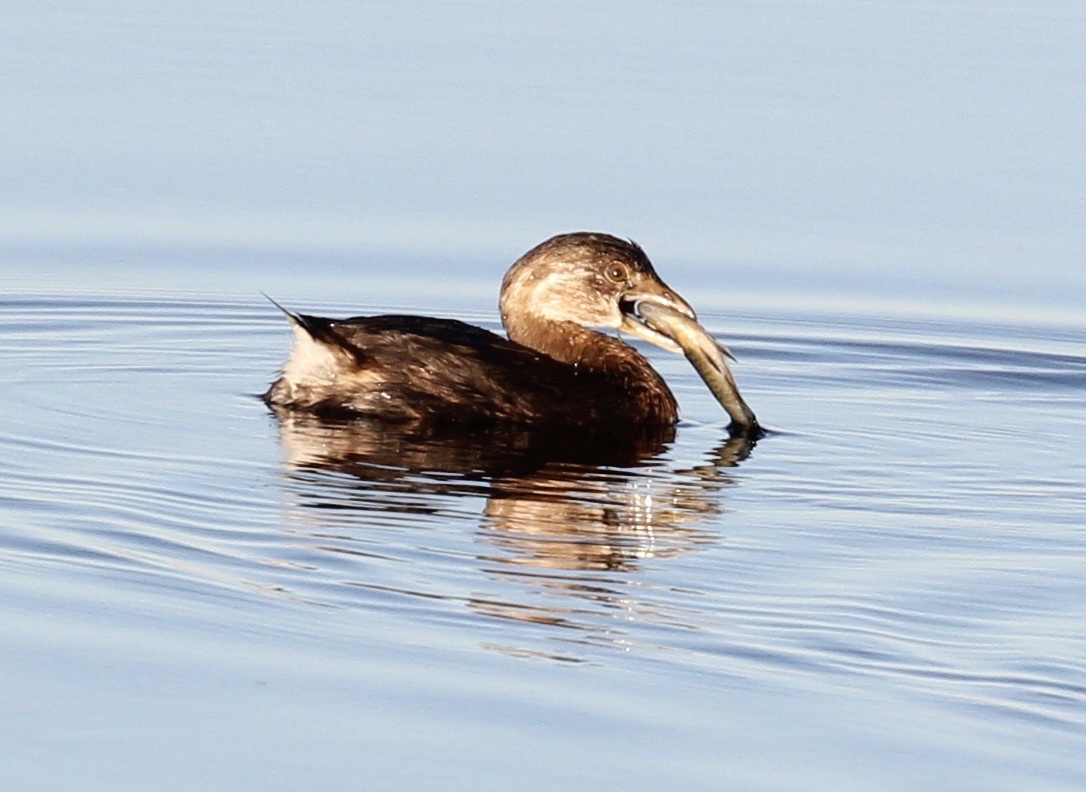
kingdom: Animalia
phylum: Chordata
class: Aves
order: Podicipediformes
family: Podicipedidae
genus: Podilymbus
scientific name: Podilymbus podiceps
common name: Pied-billed grebe
